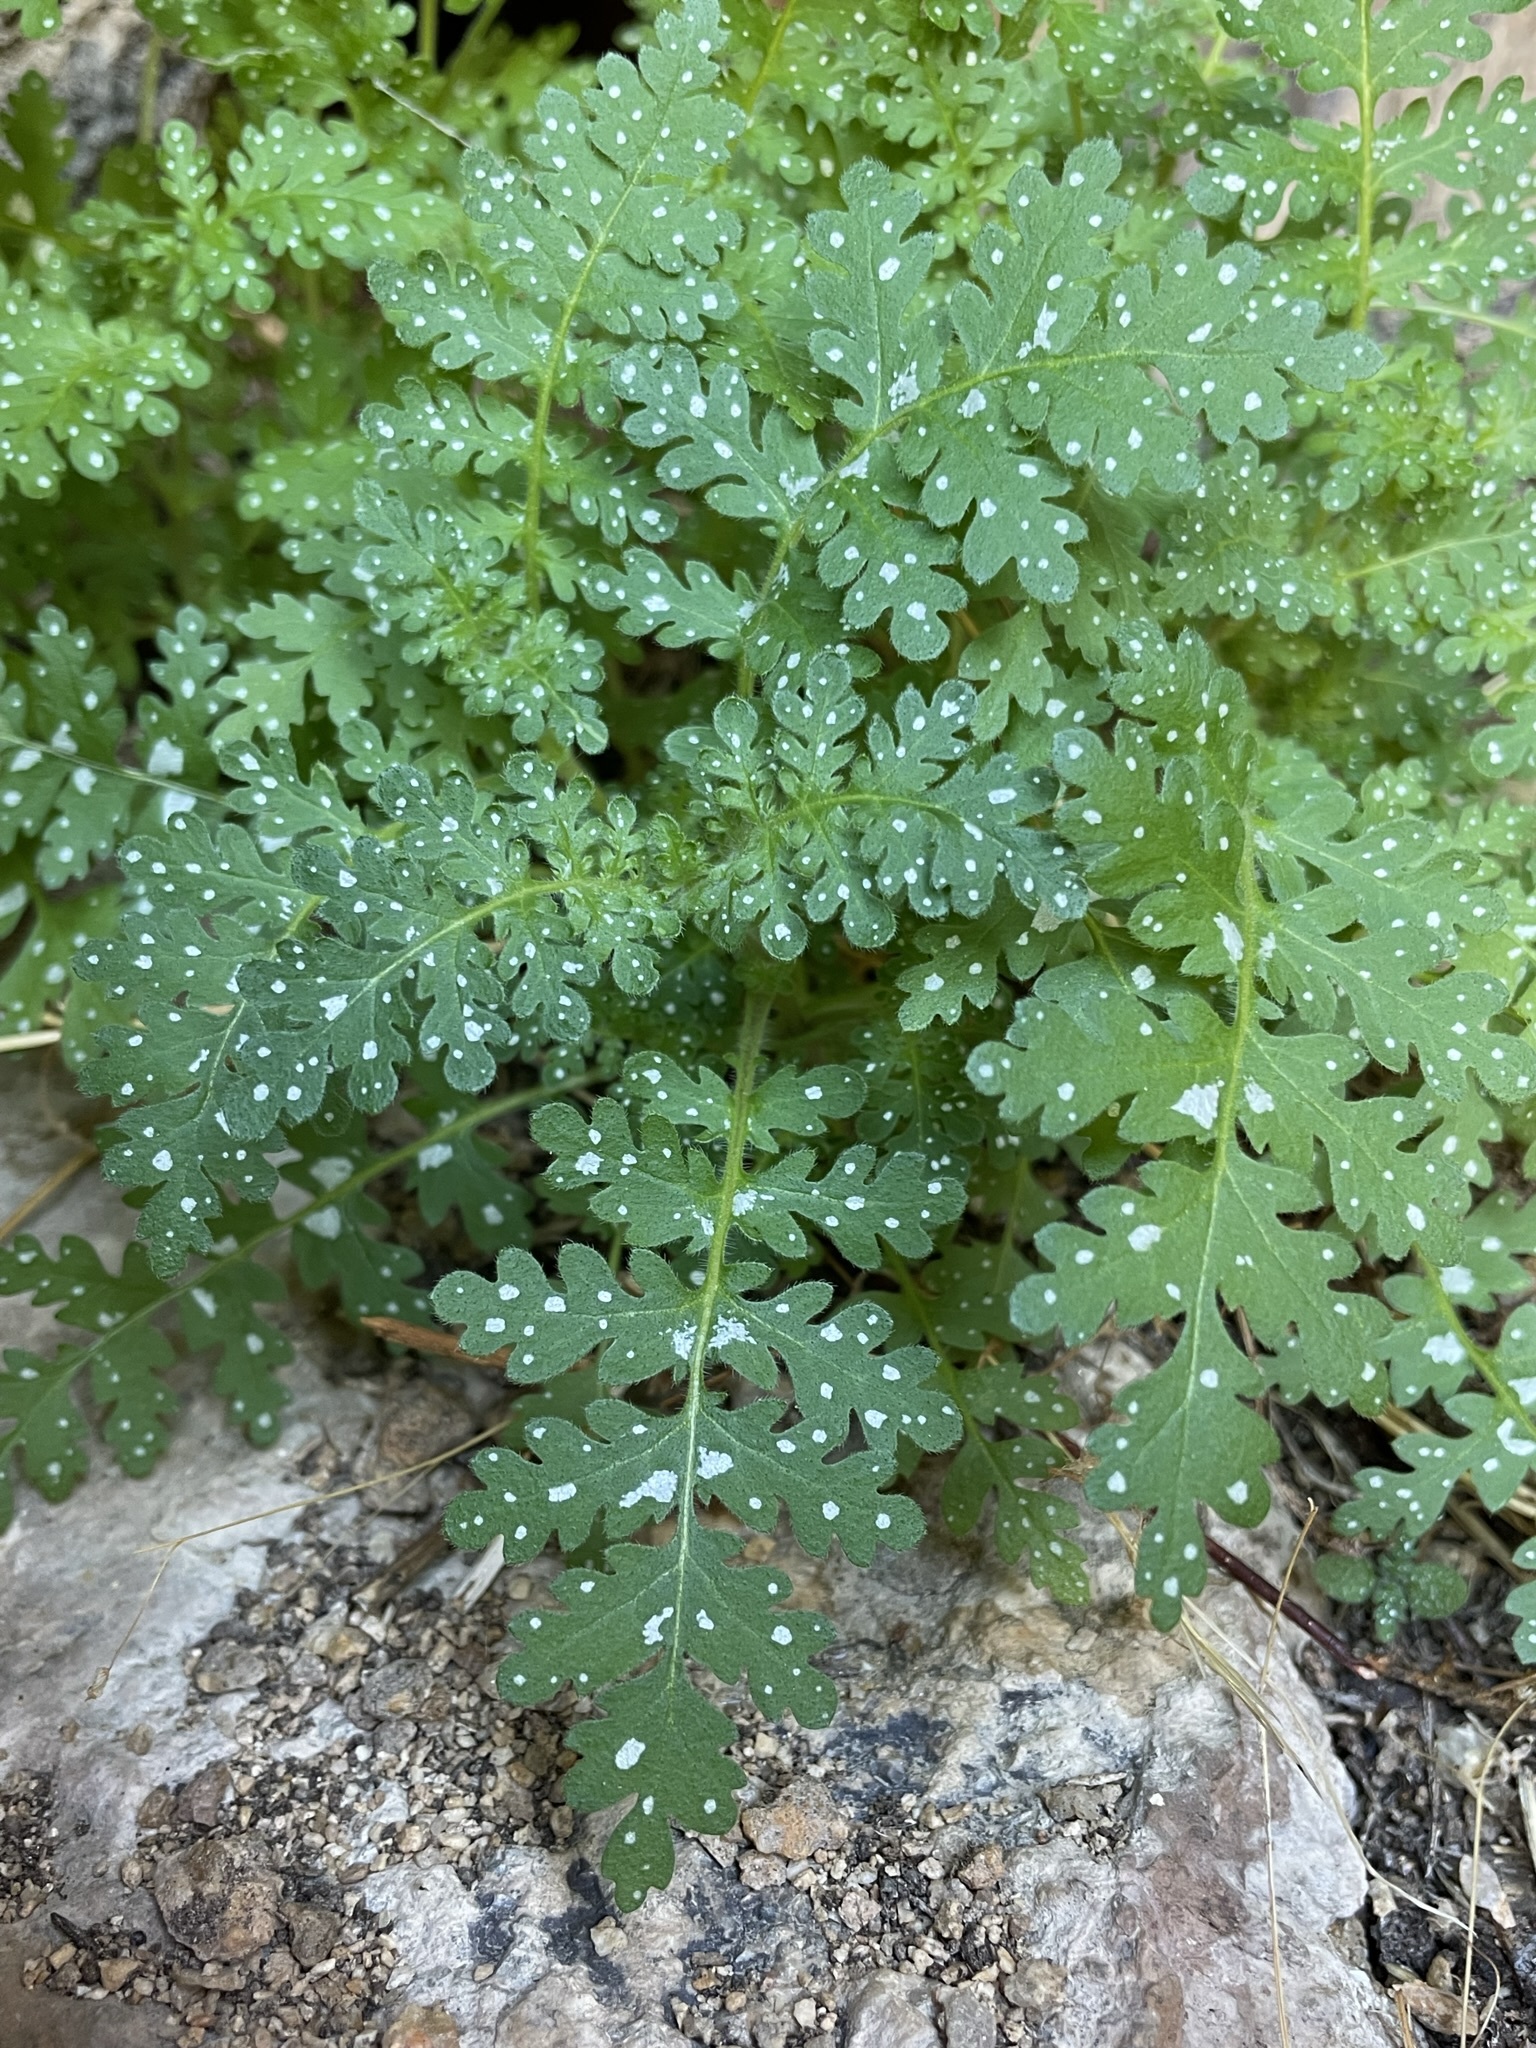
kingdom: Plantae
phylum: Tracheophyta
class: Magnoliopsida
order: Boraginales
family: Hydrophyllaceae
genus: Eucrypta
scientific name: Eucrypta chrysanthemifolia
